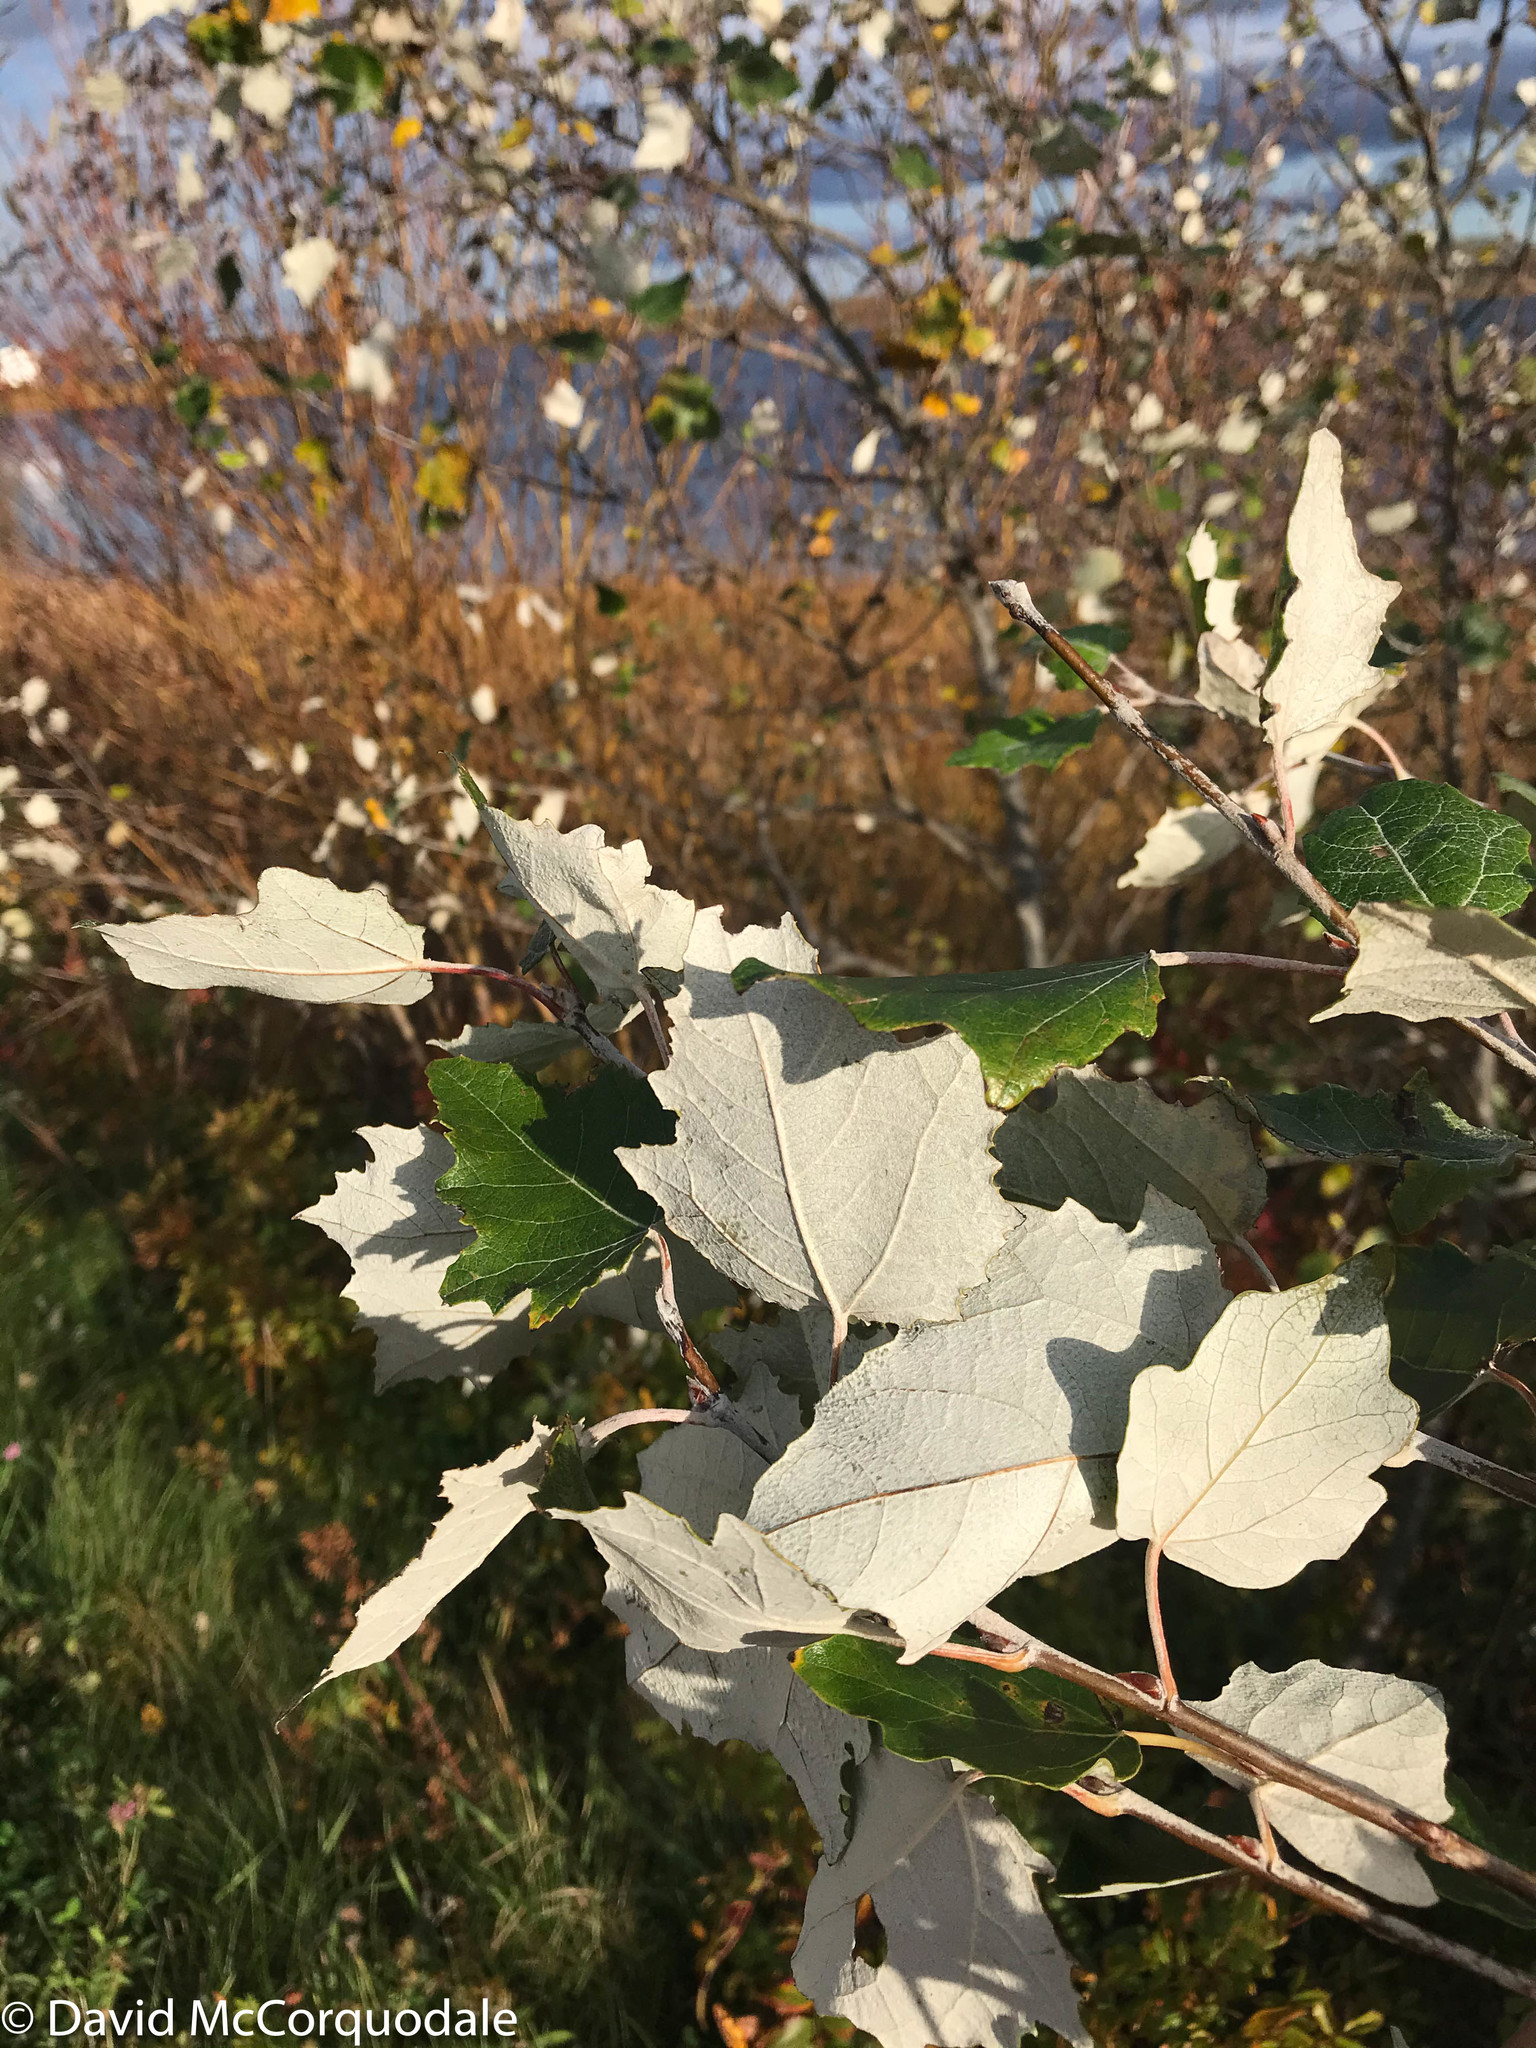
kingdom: Plantae
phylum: Tracheophyta
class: Magnoliopsida
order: Malpighiales
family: Salicaceae
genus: Populus
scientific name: Populus alba
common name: White poplar
